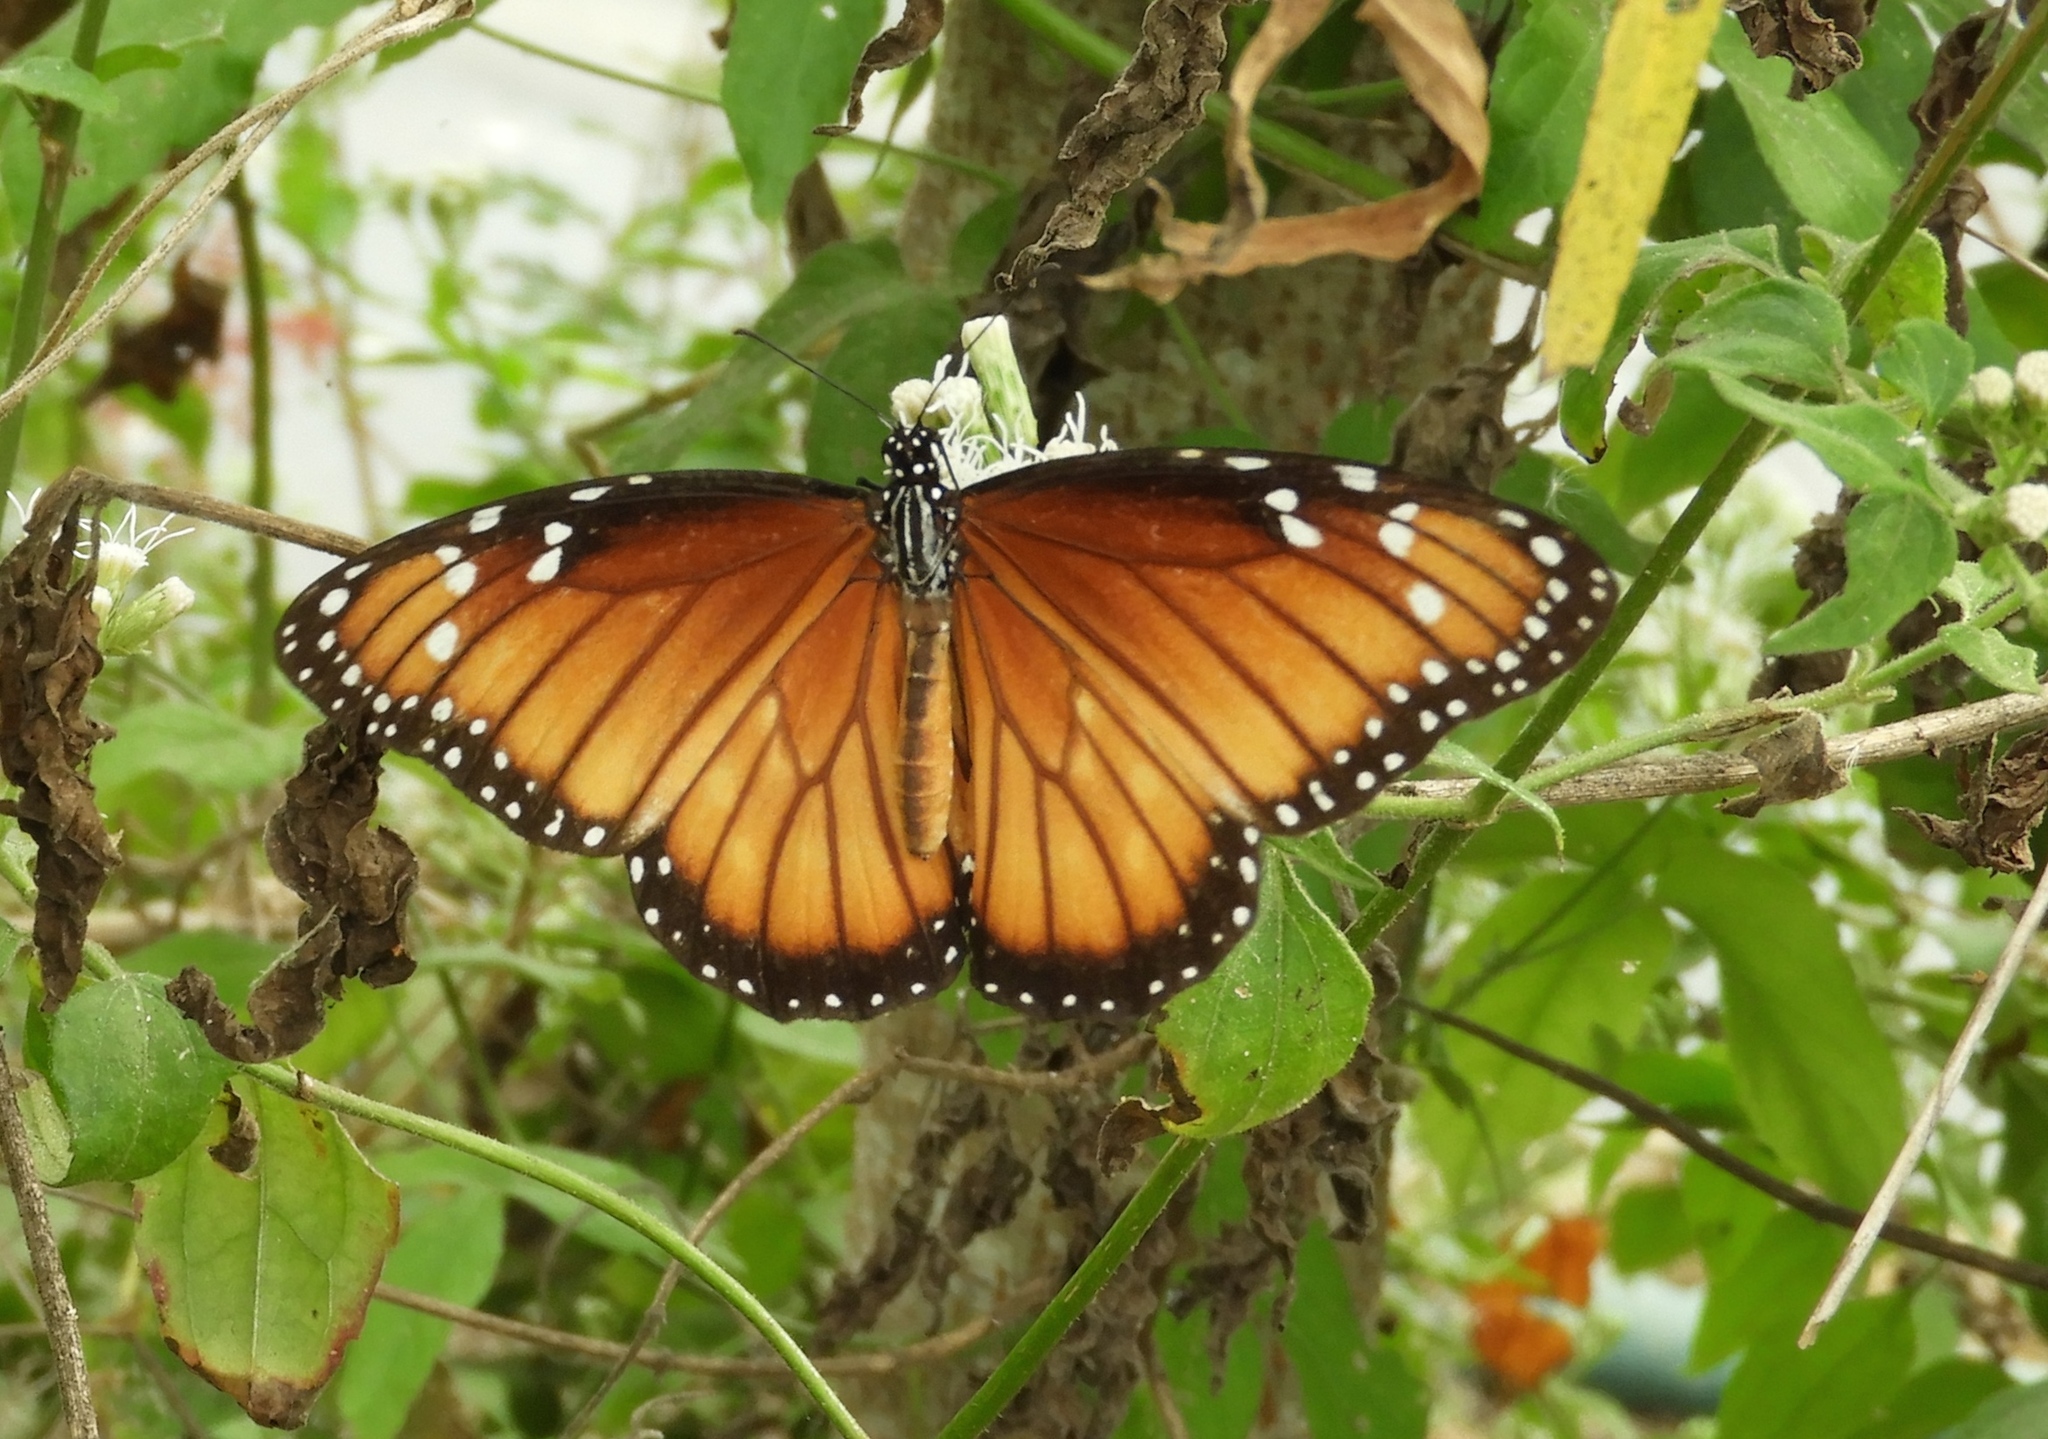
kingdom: Animalia
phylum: Arthropoda
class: Insecta
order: Lepidoptera
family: Nymphalidae
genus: Danaus
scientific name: Danaus eresimus
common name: Soldier
